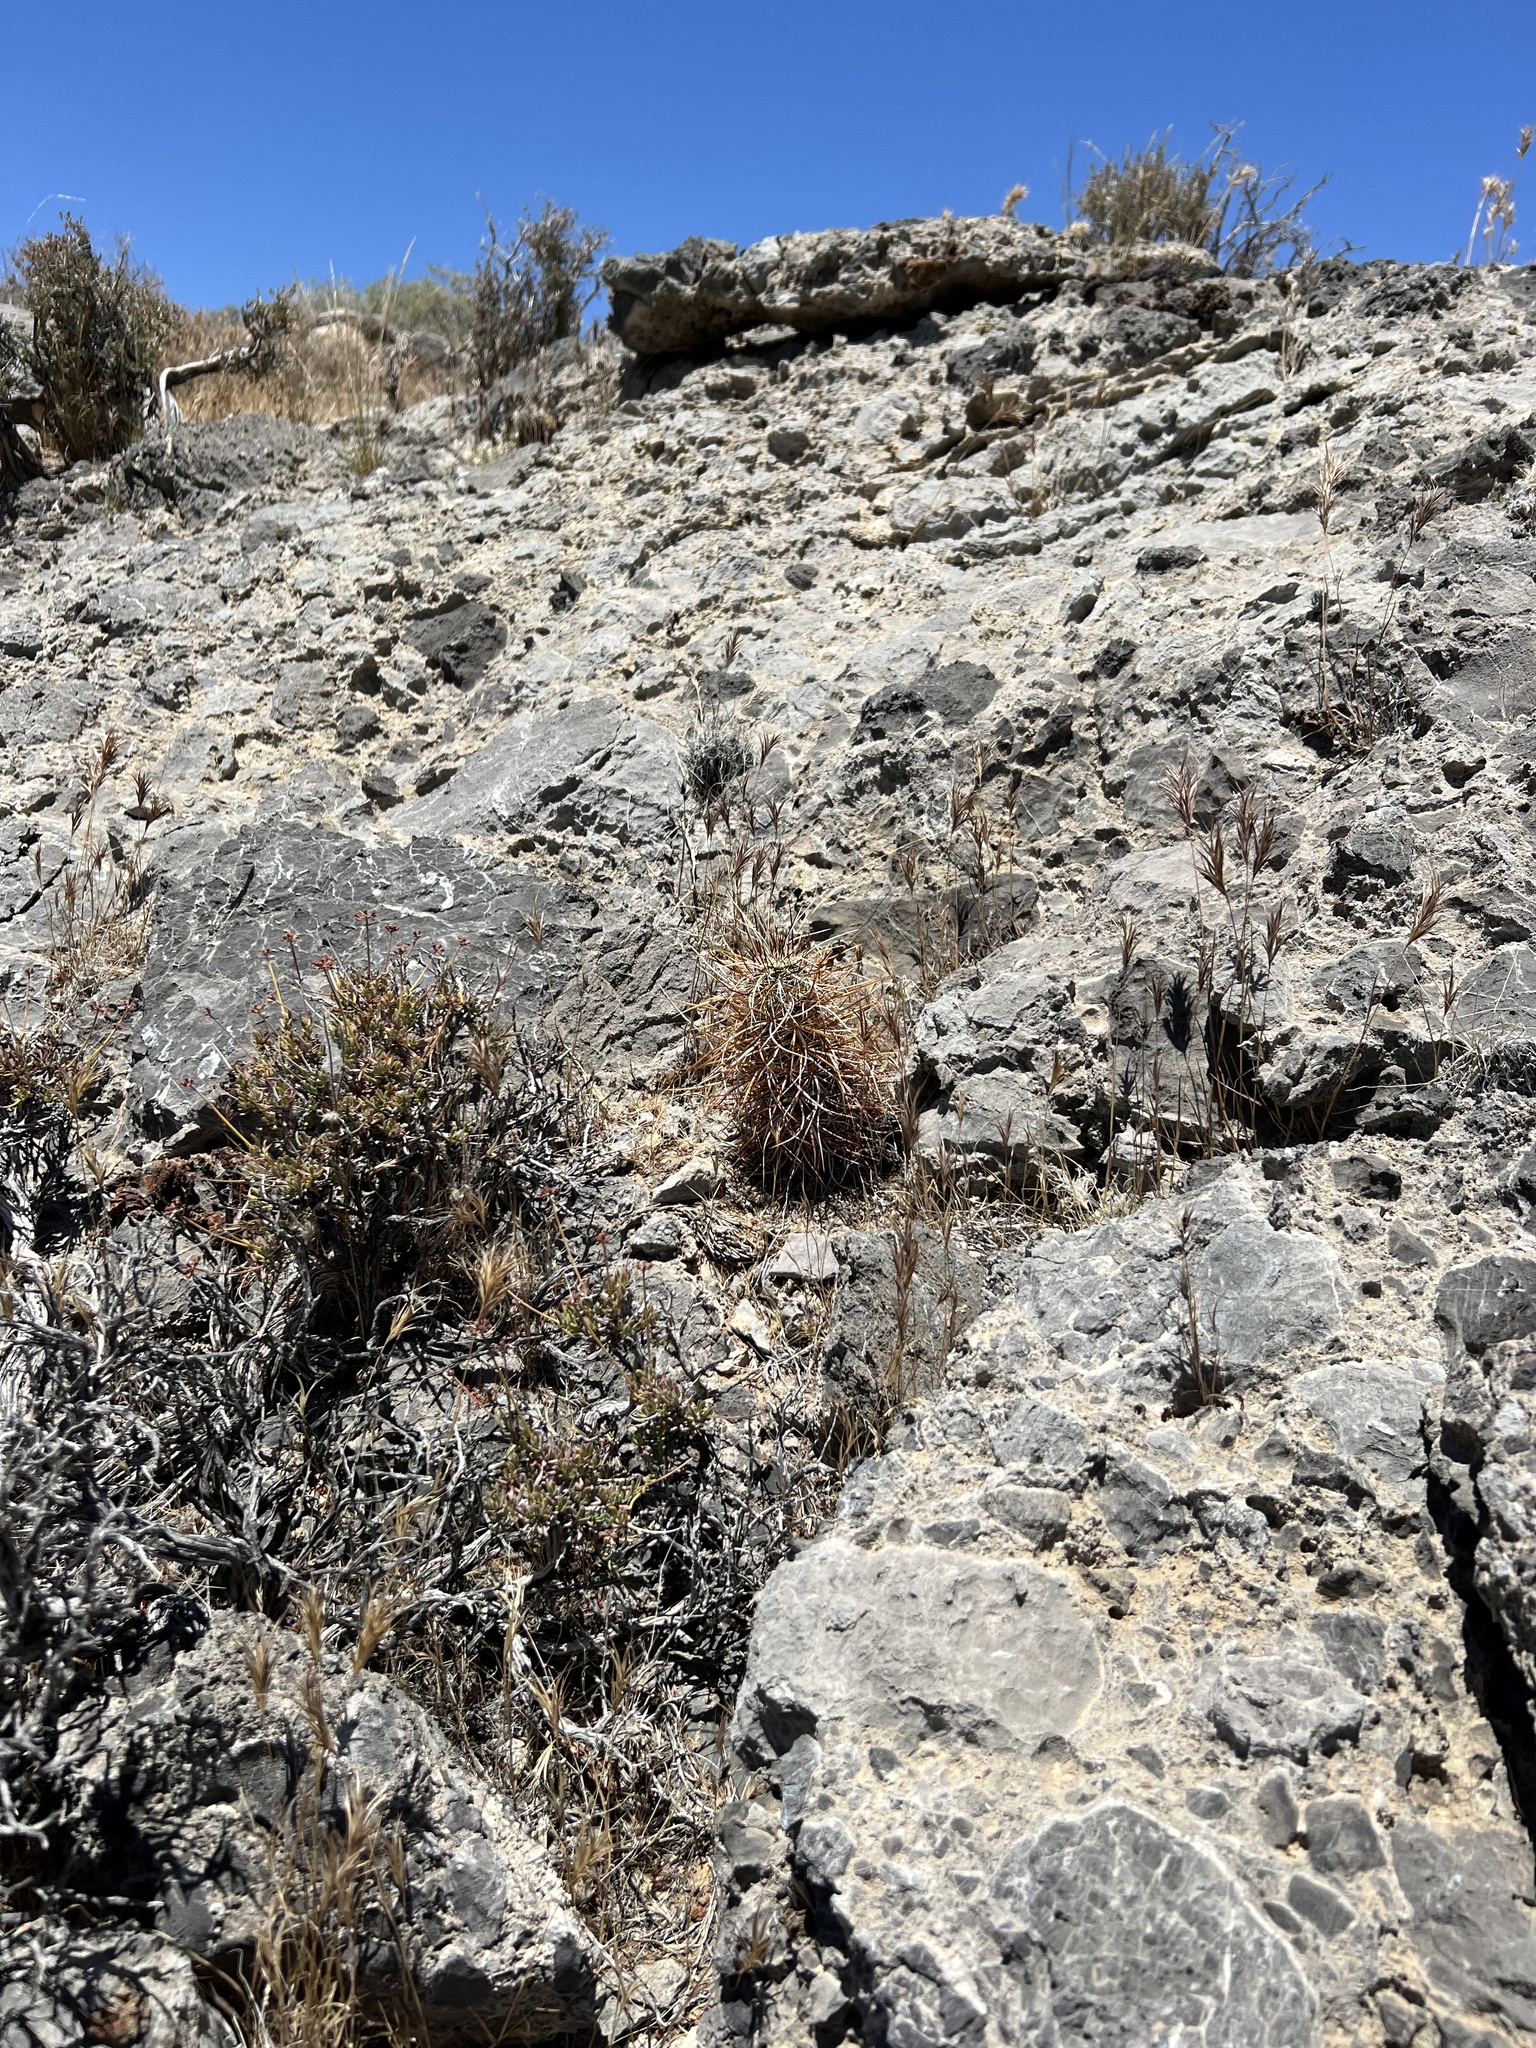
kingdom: Plantae
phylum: Tracheophyta
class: Magnoliopsida
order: Caryophyllales
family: Cactaceae
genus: Echinocereus
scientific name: Echinocereus engelmannii
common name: Engelmann's hedgehog cactus
